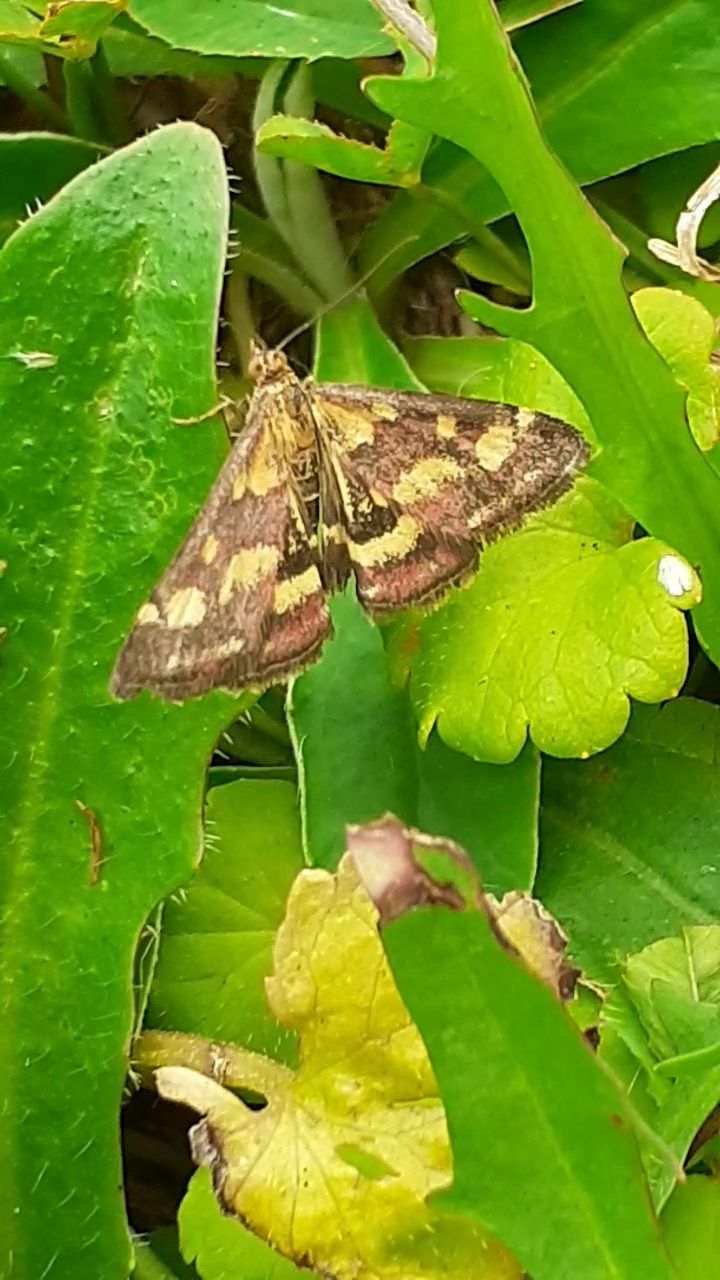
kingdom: Animalia
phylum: Arthropoda
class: Insecta
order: Lepidoptera
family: Crambidae
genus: Pyrausta
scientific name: Pyrausta purpuralis
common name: Common purple & gold
